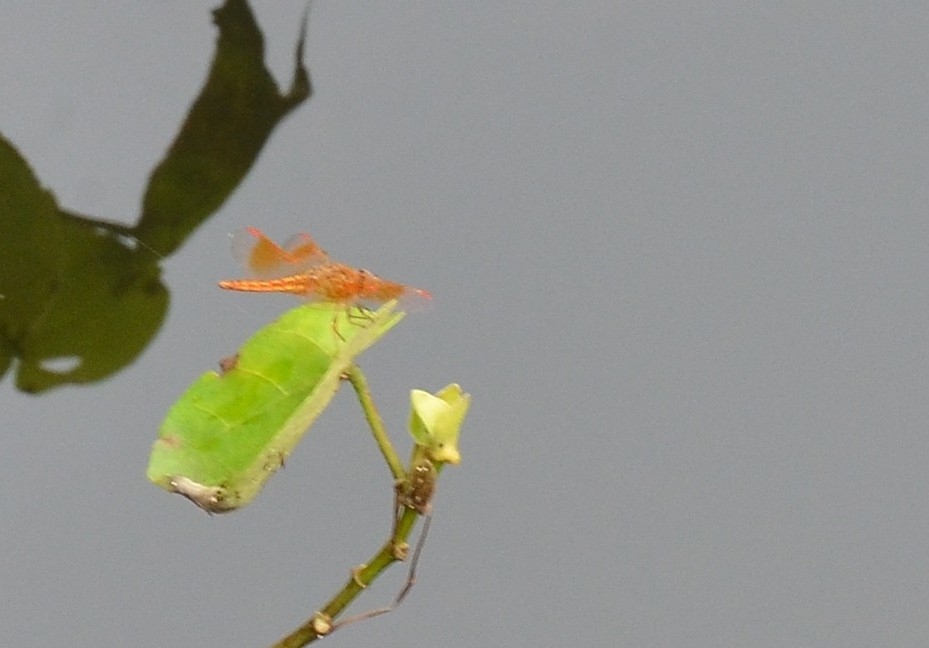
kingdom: Animalia
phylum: Arthropoda
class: Insecta
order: Odonata
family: Libellulidae
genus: Brachythemis
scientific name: Brachythemis contaminata
